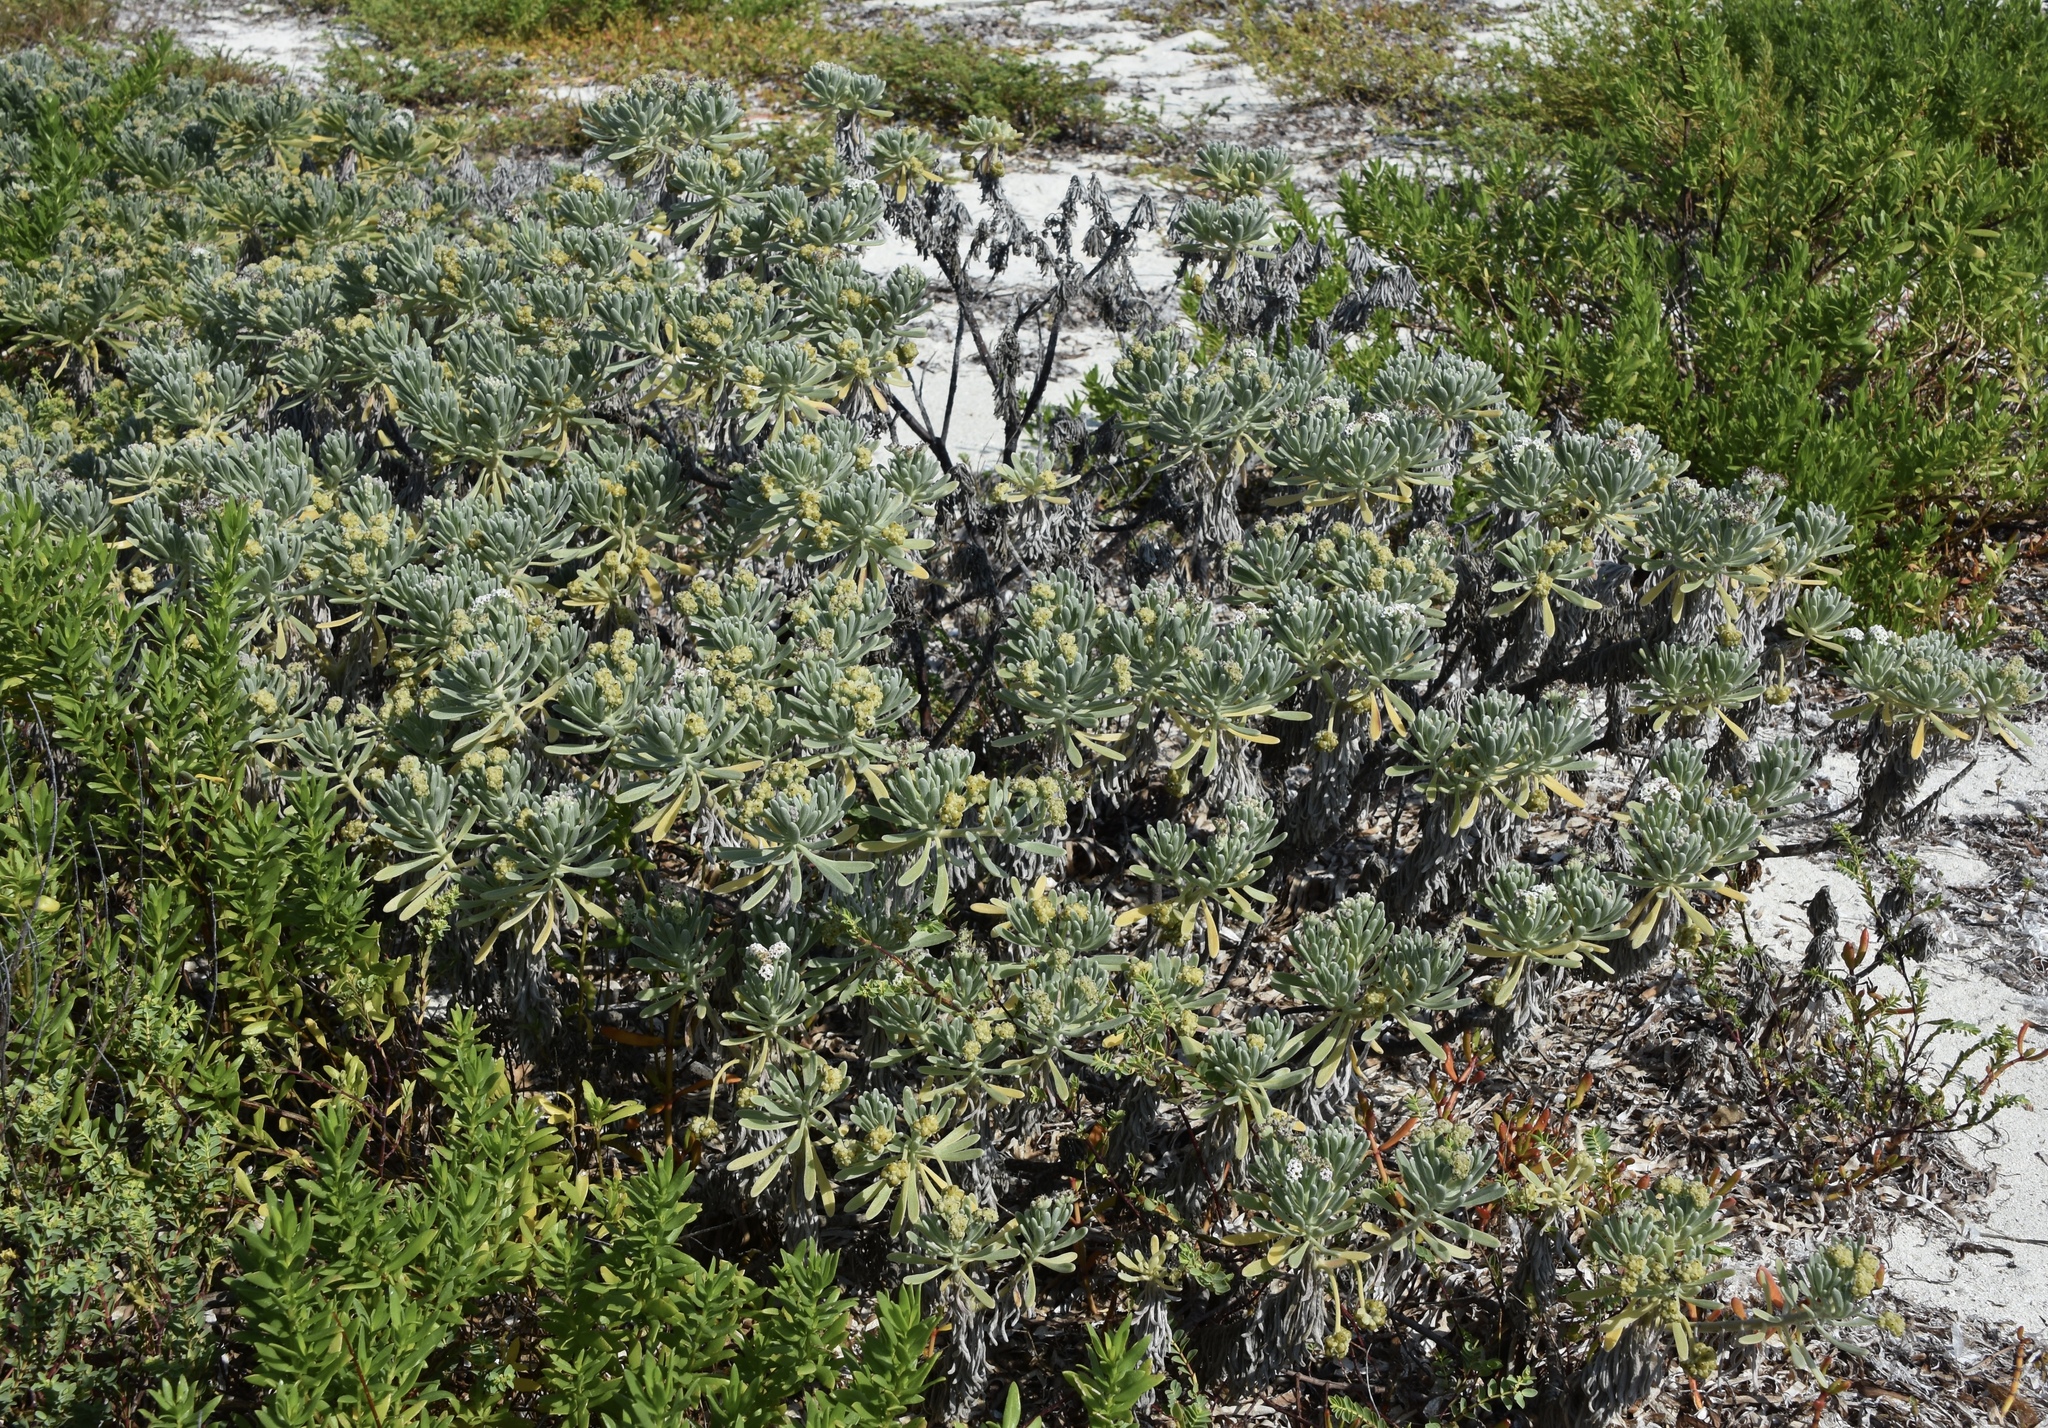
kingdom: Plantae
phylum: Tracheophyta
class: Magnoliopsida
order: Boraginales
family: Heliotropiaceae
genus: Tournefortia
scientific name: Tournefortia gnaphalodes
